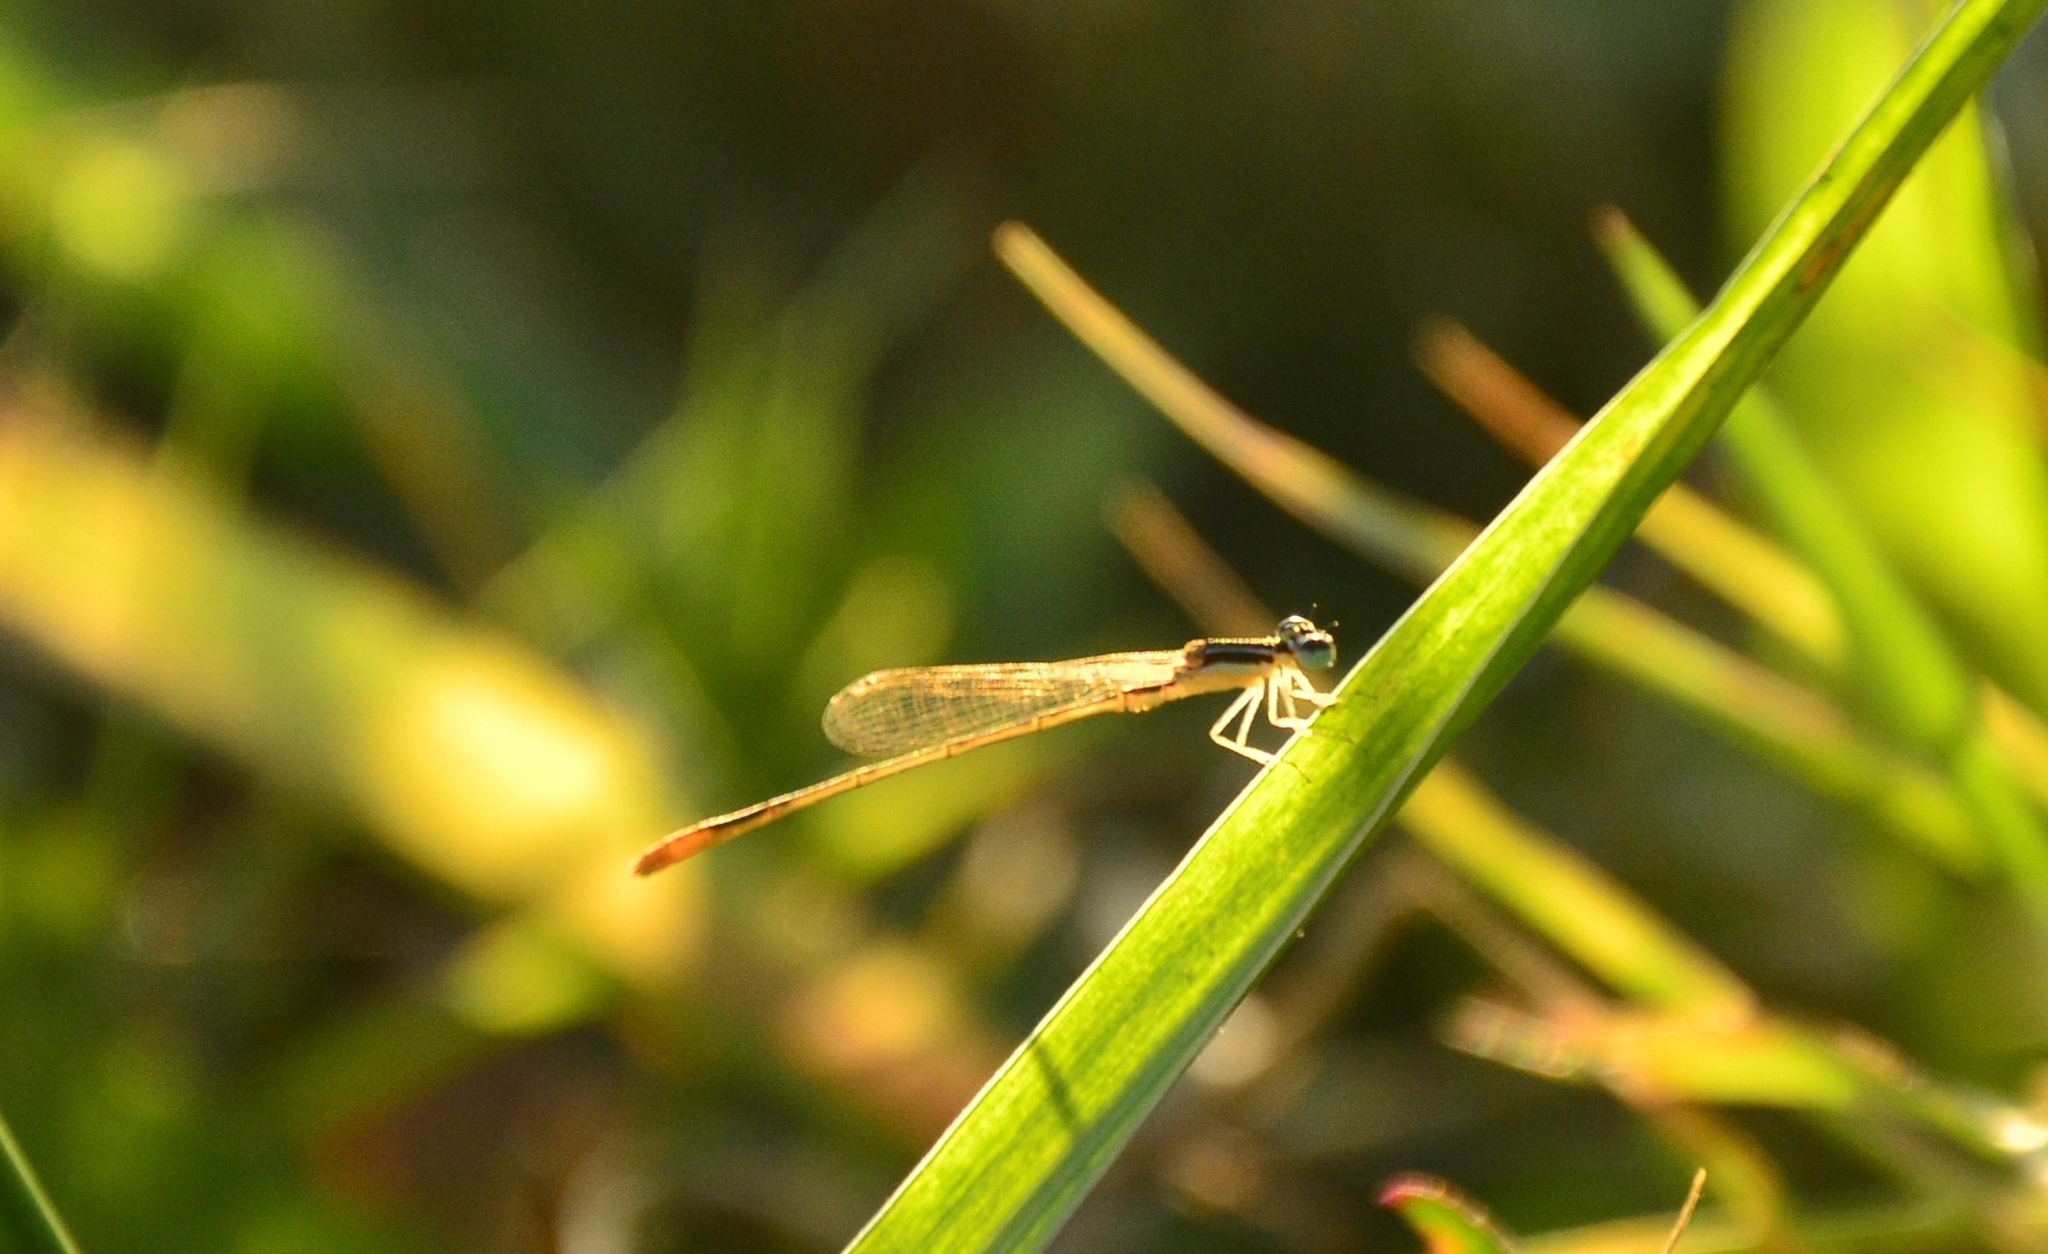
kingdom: Animalia
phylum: Arthropoda
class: Insecta
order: Odonata
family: Coenagrionidae
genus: Agriocnemis
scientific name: Agriocnemis pygmaea
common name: Pygmy wisp
